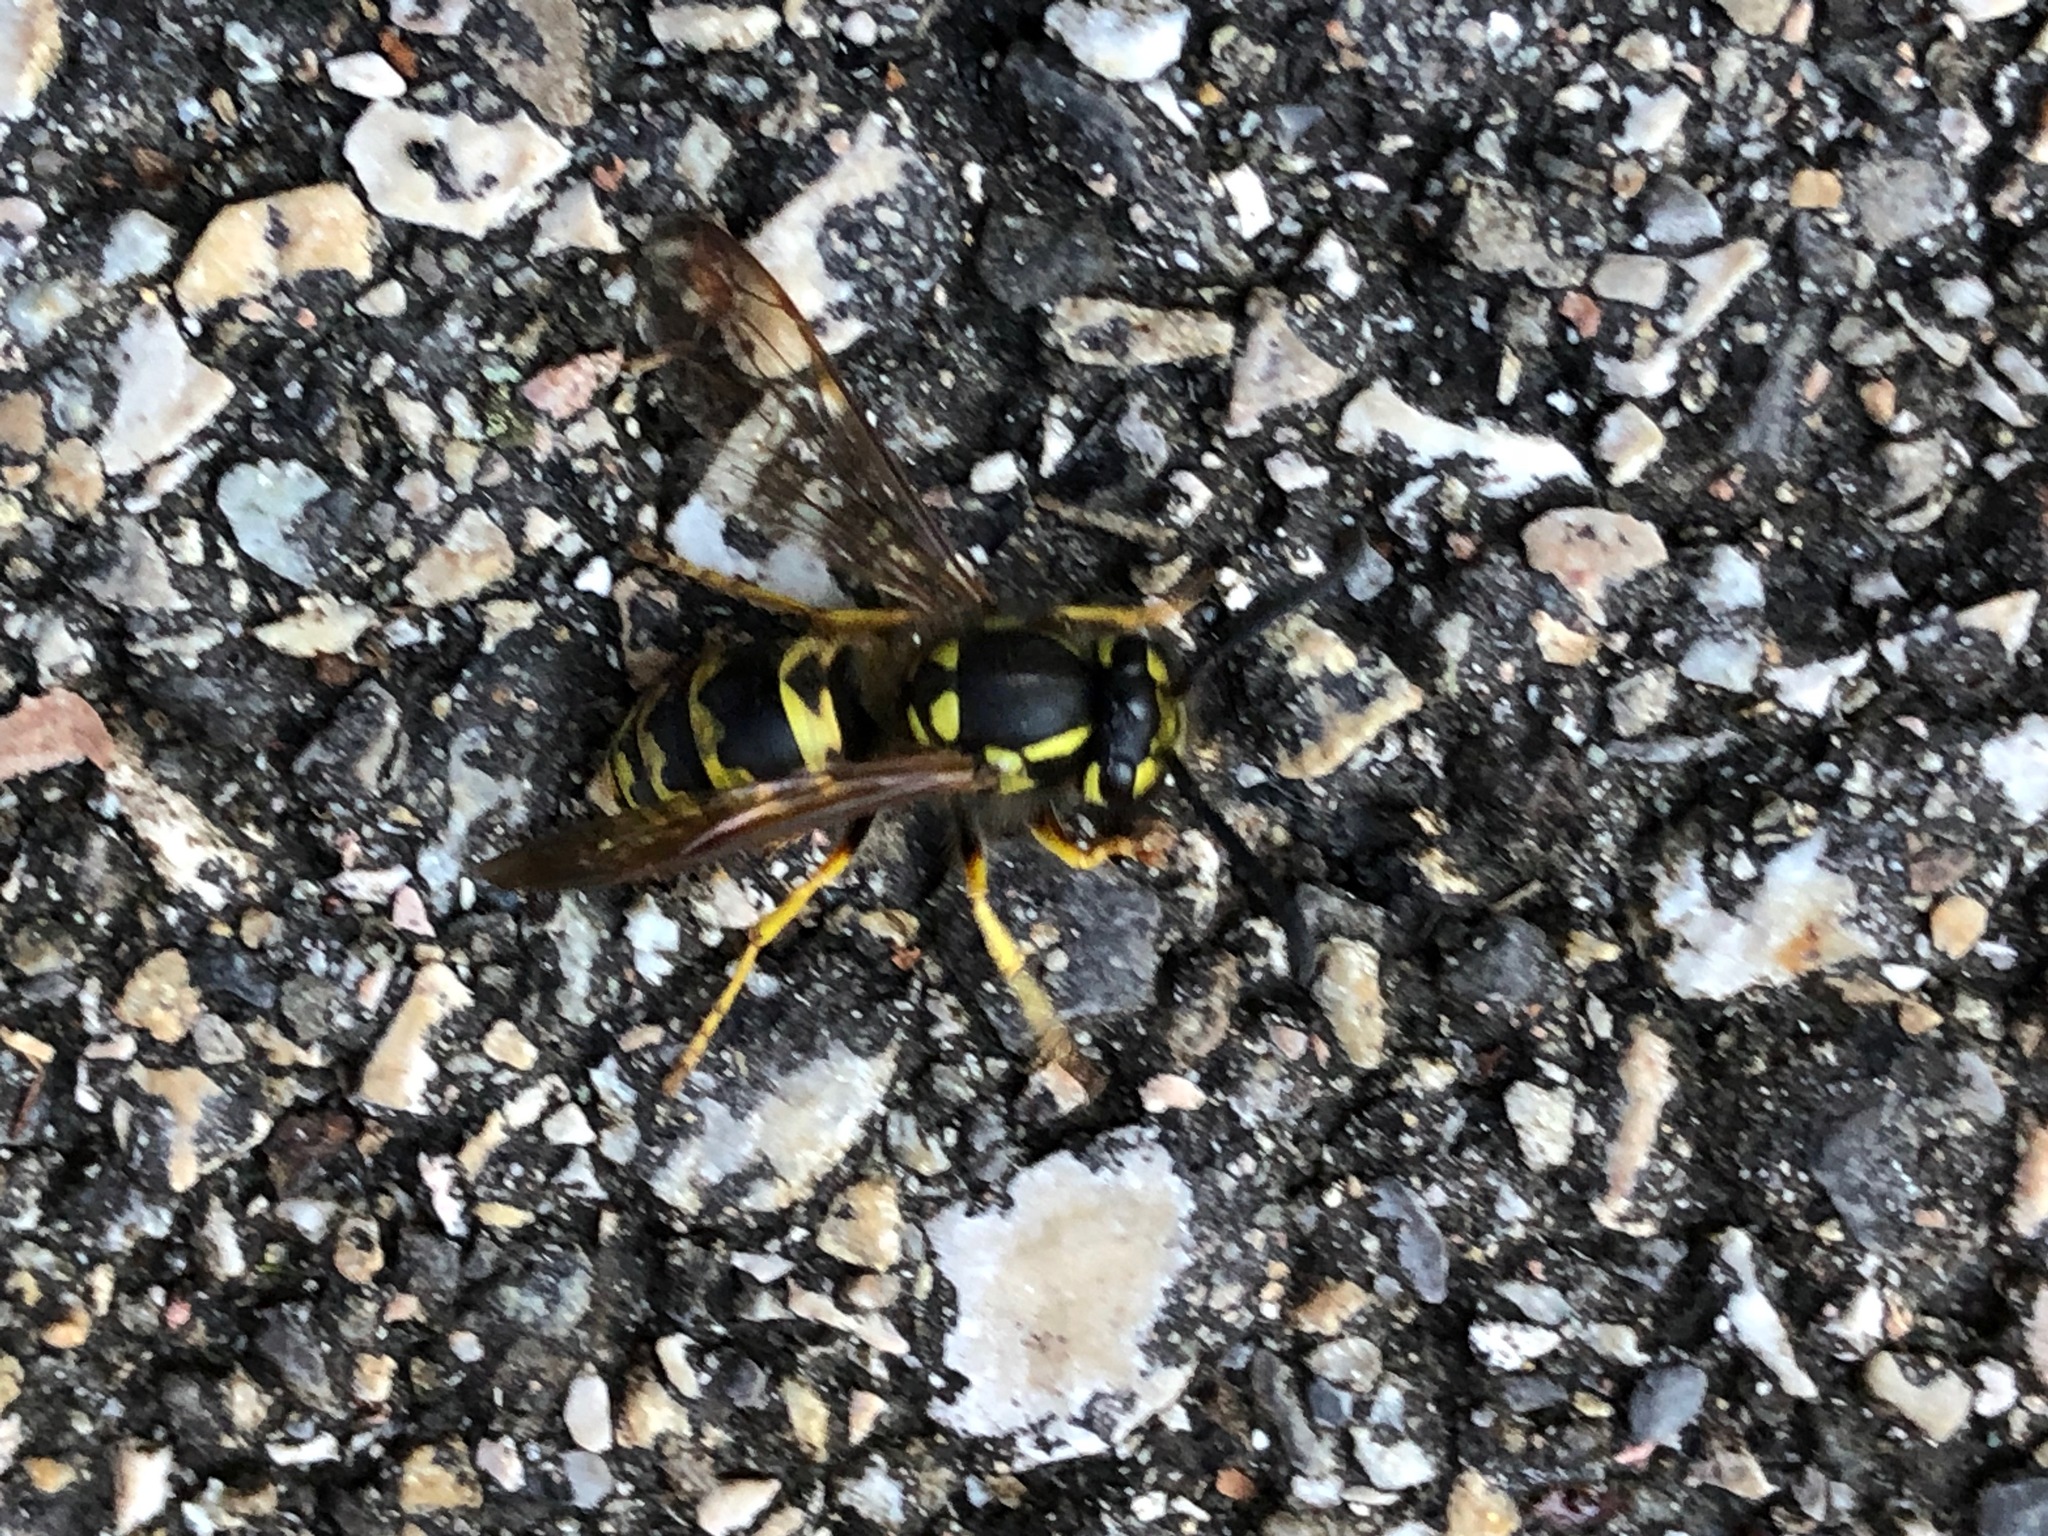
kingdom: Animalia
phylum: Arthropoda
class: Insecta
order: Hymenoptera
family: Vespidae
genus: Vespula
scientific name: Vespula germanica
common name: German wasp
